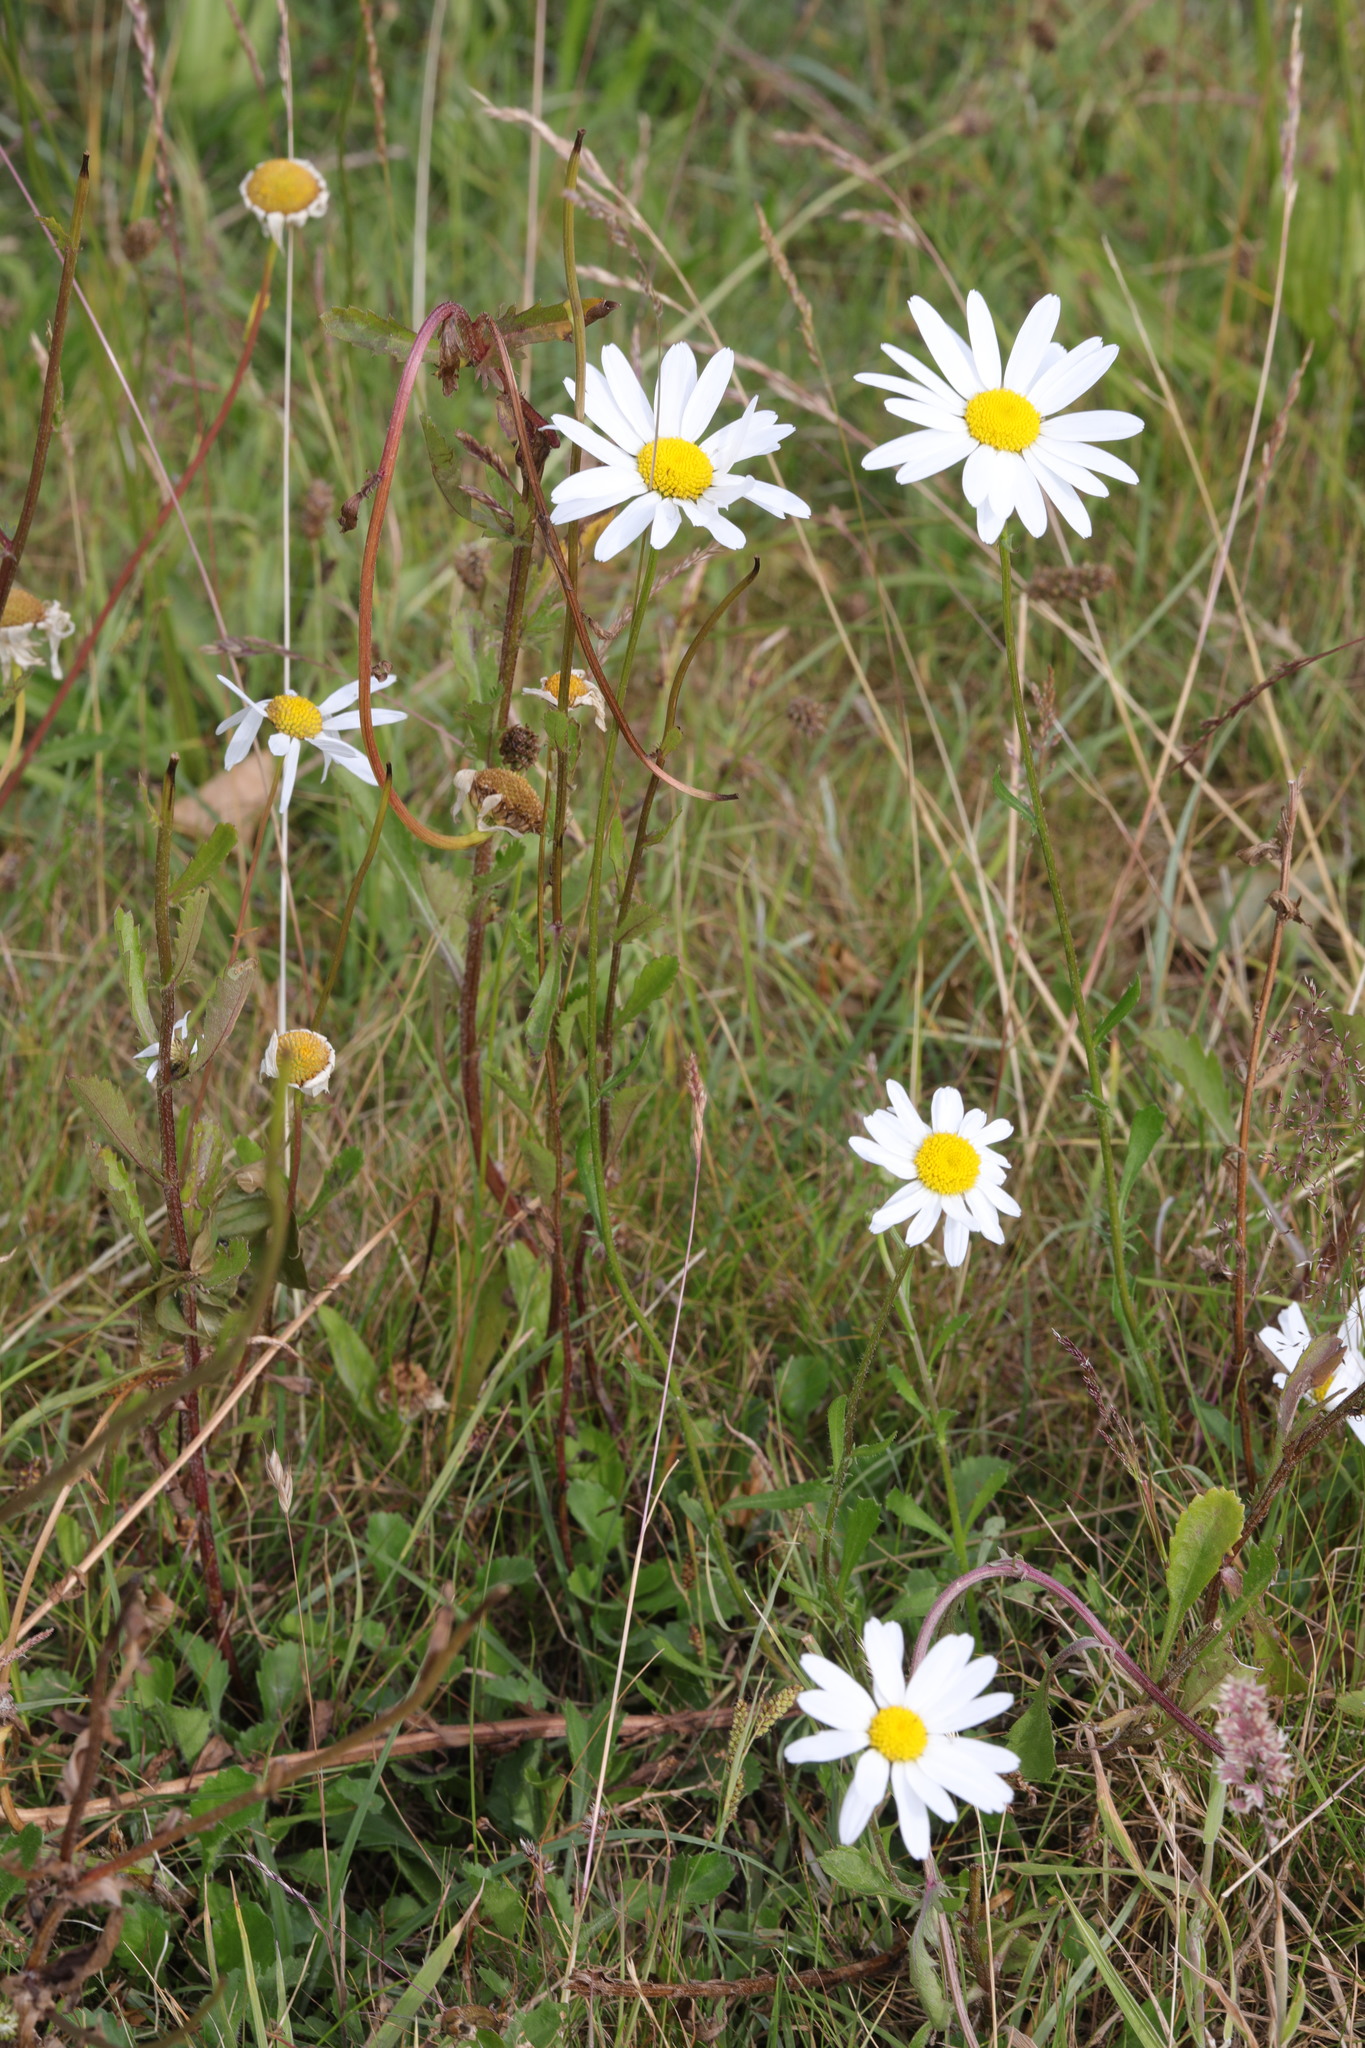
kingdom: Plantae
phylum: Tracheophyta
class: Magnoliopsida
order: Asterales
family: Asteraceae
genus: Leucanthemum
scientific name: Leucanthemum vulgare
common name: Oxeye daisy
